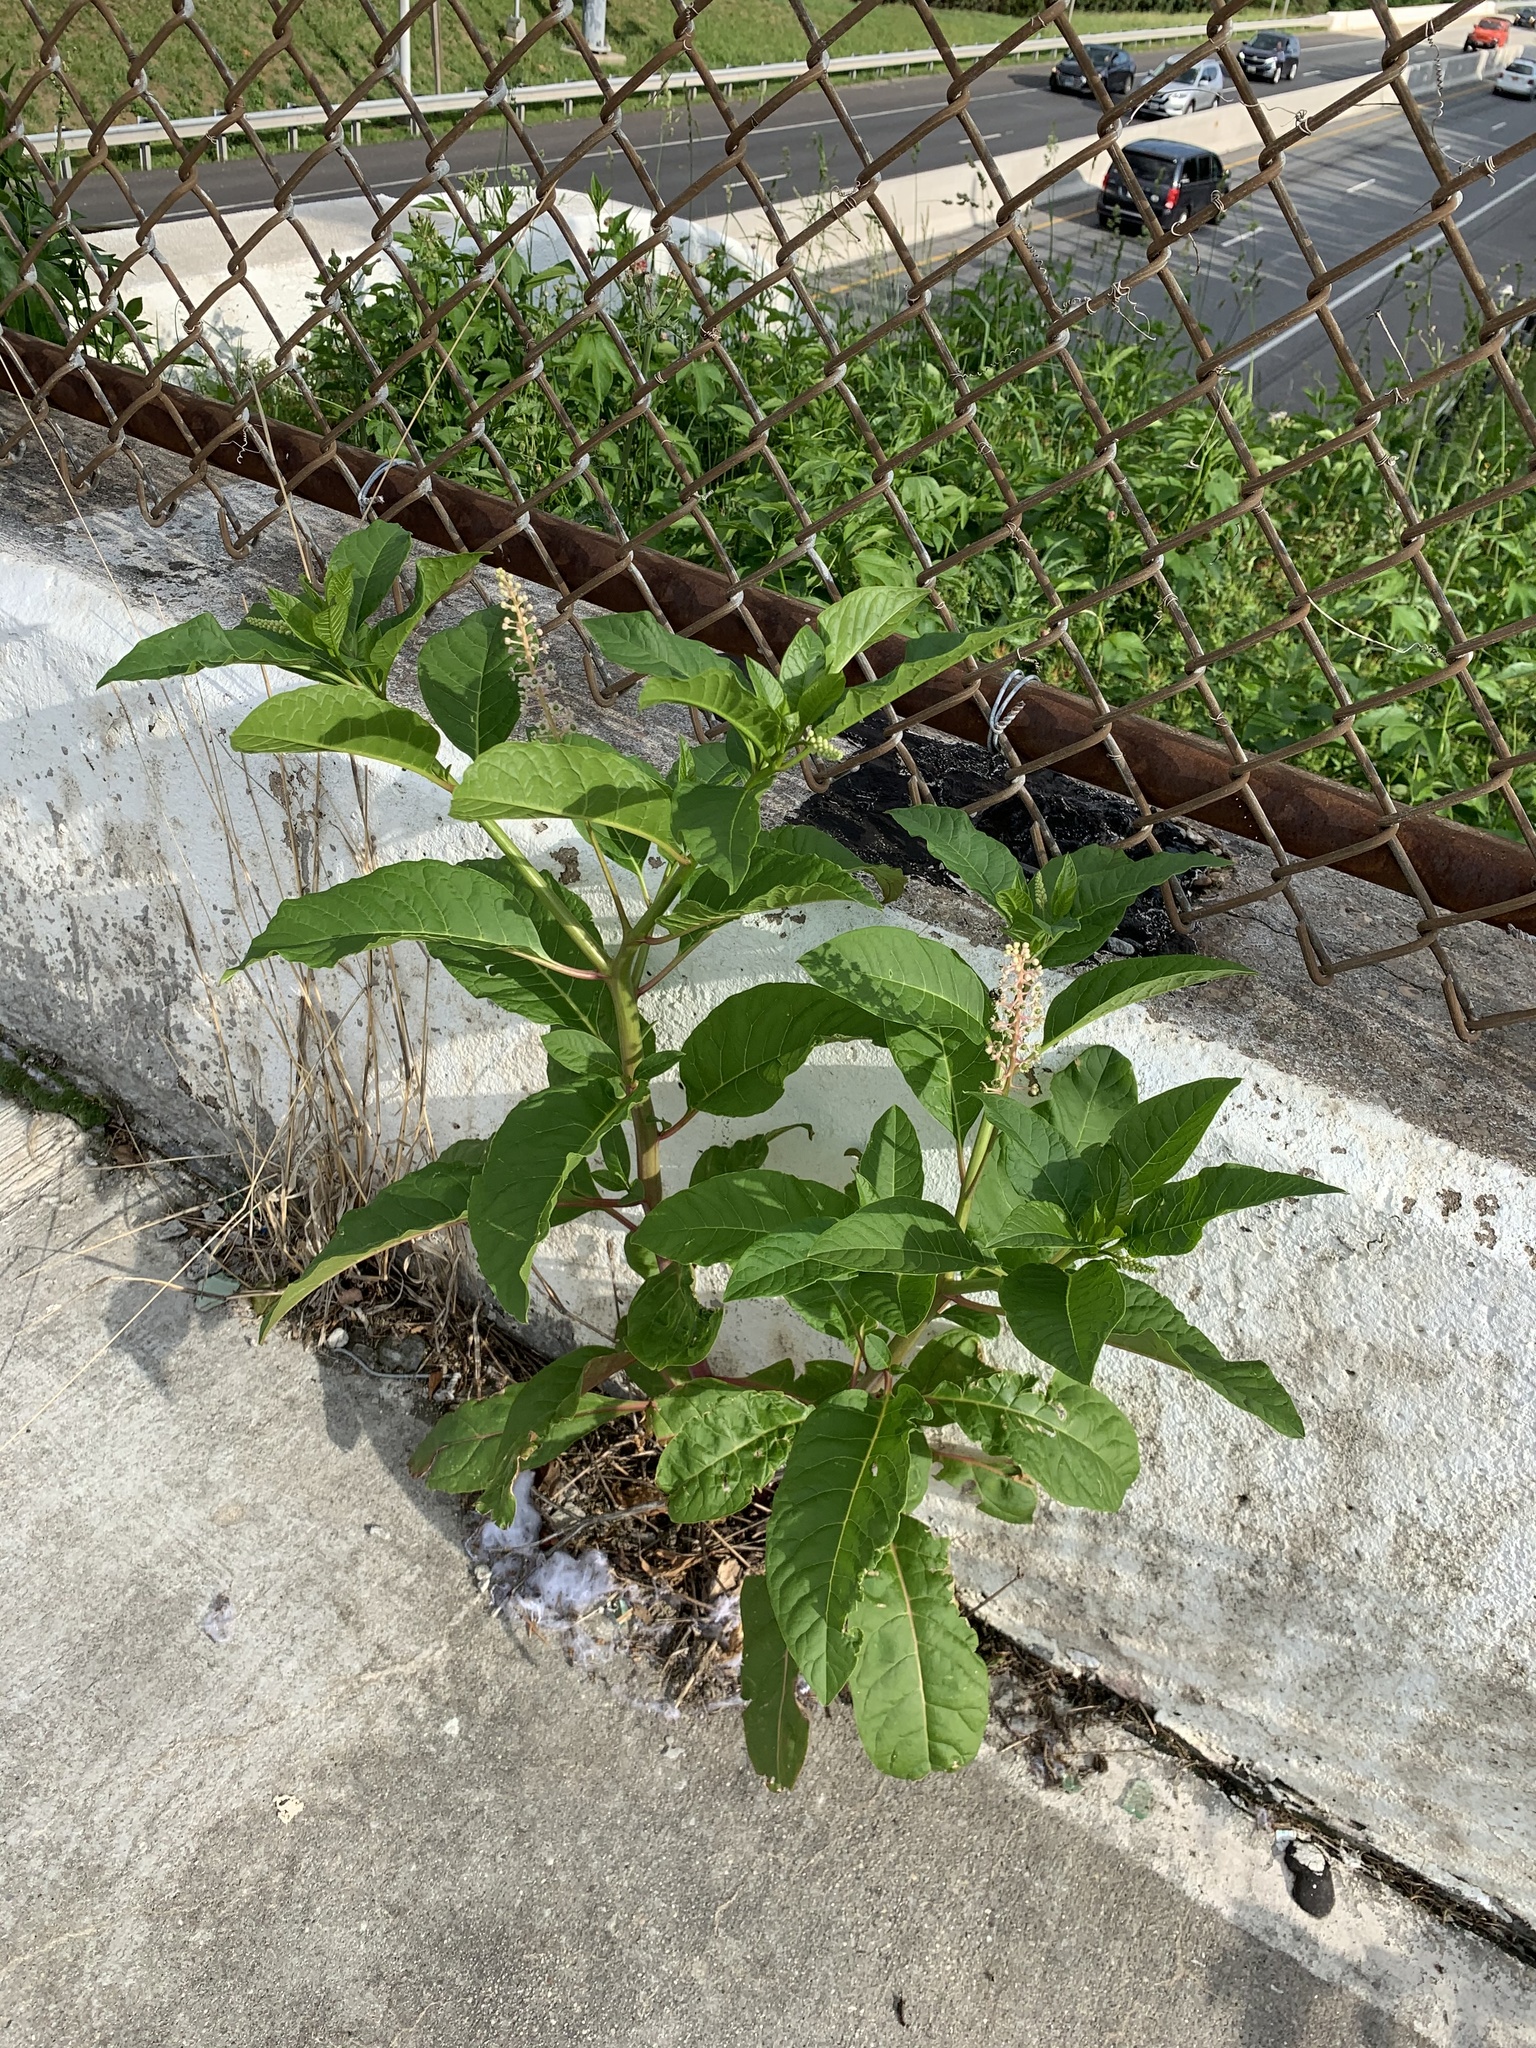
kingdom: Plantae
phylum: Tracheophyta
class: Magnoliopsida
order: Caryophyllales
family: Phytolaccaceae
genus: Phytolacca
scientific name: Phytolacca americana
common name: American pokeweed
